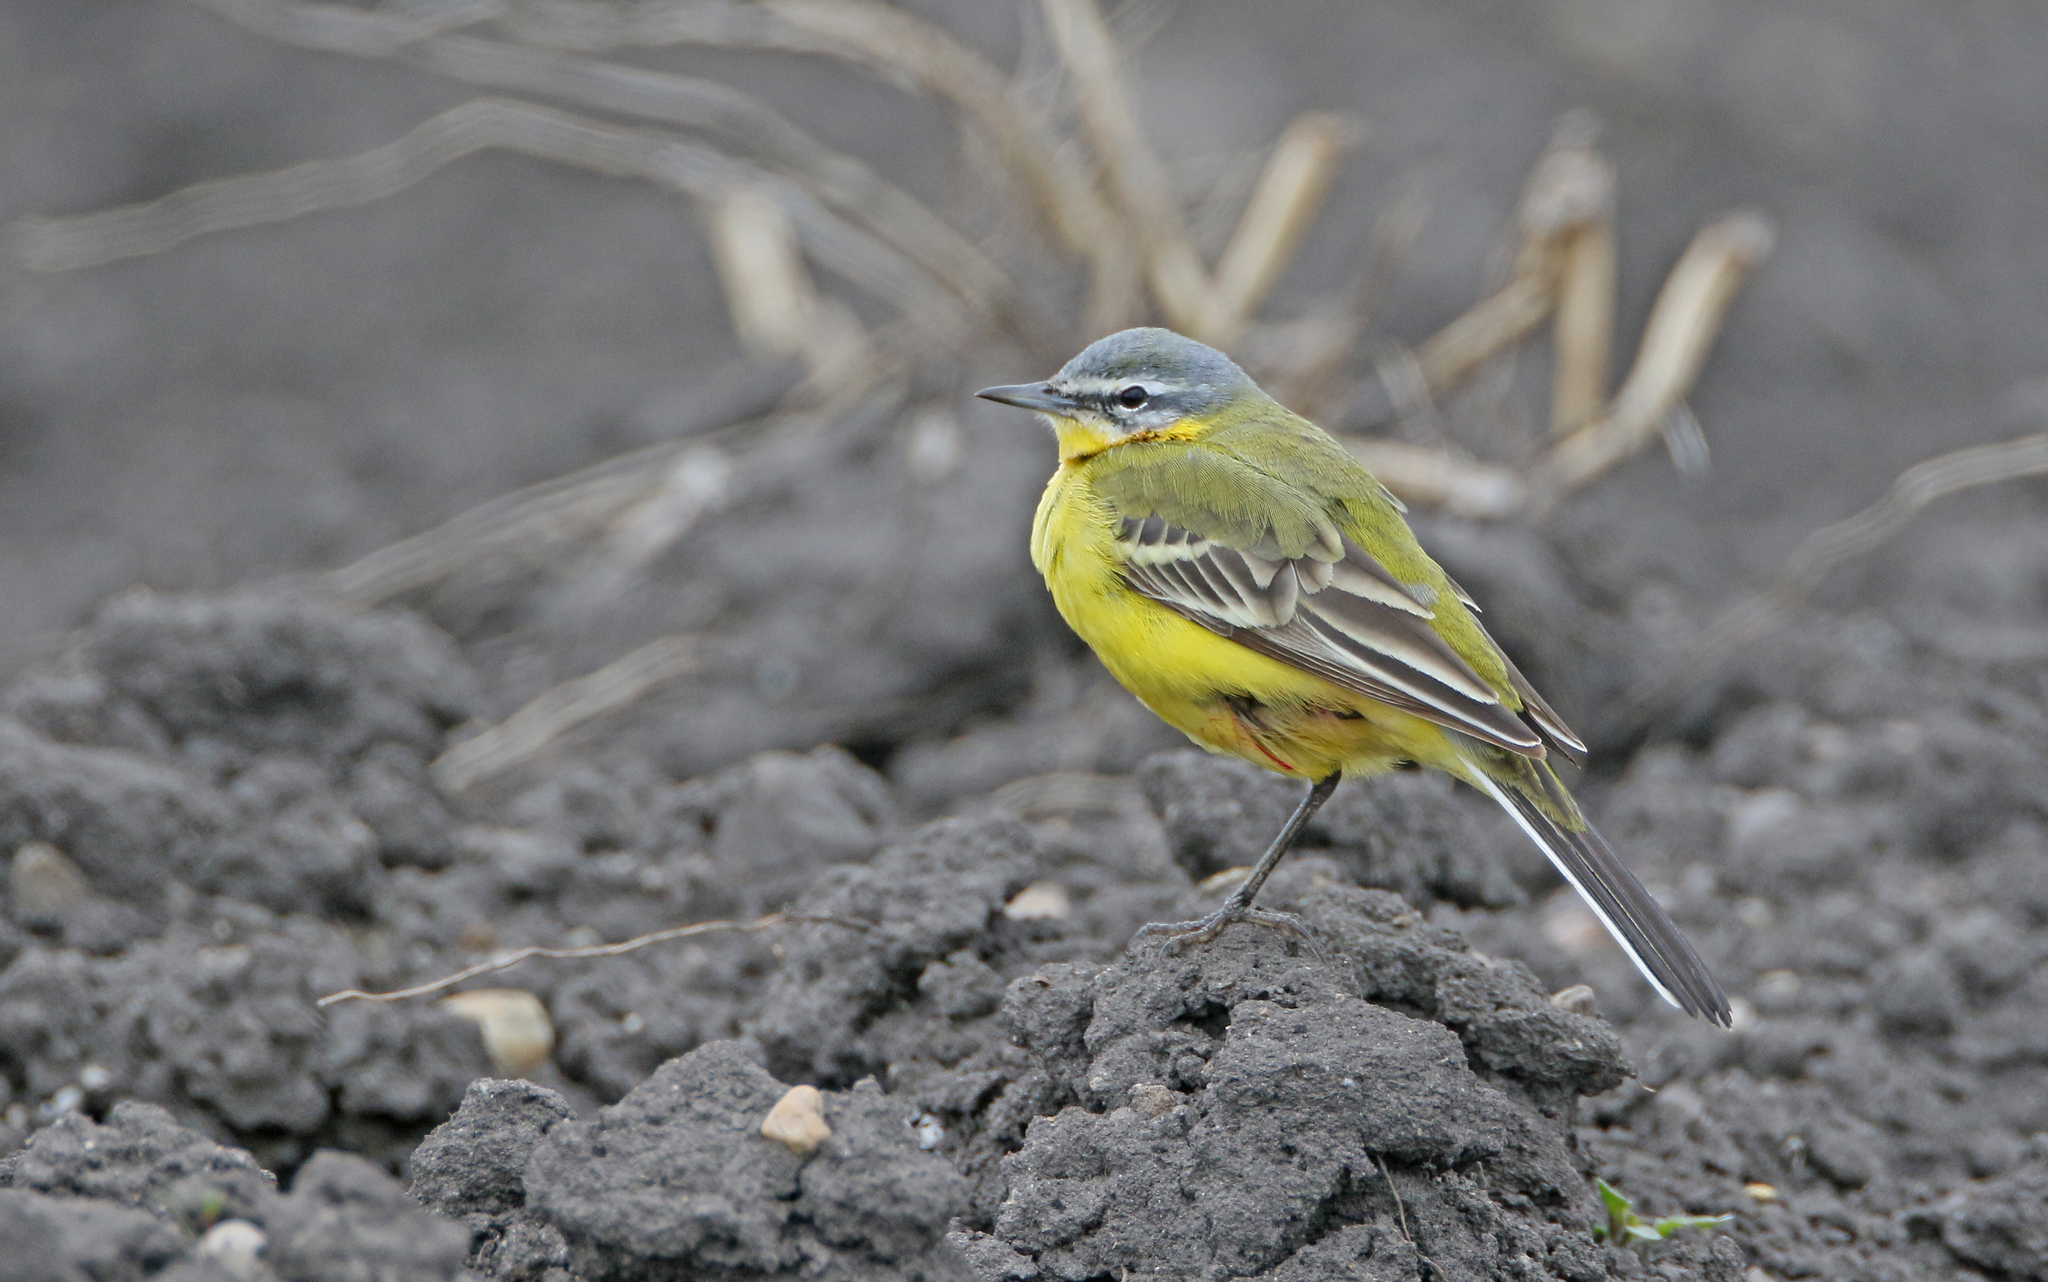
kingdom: Animalia
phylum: Chordata
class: Aves
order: Passeriformes
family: Motacillidae
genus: Motacilla
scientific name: Motacilla flava
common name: Western yellow wagtail
